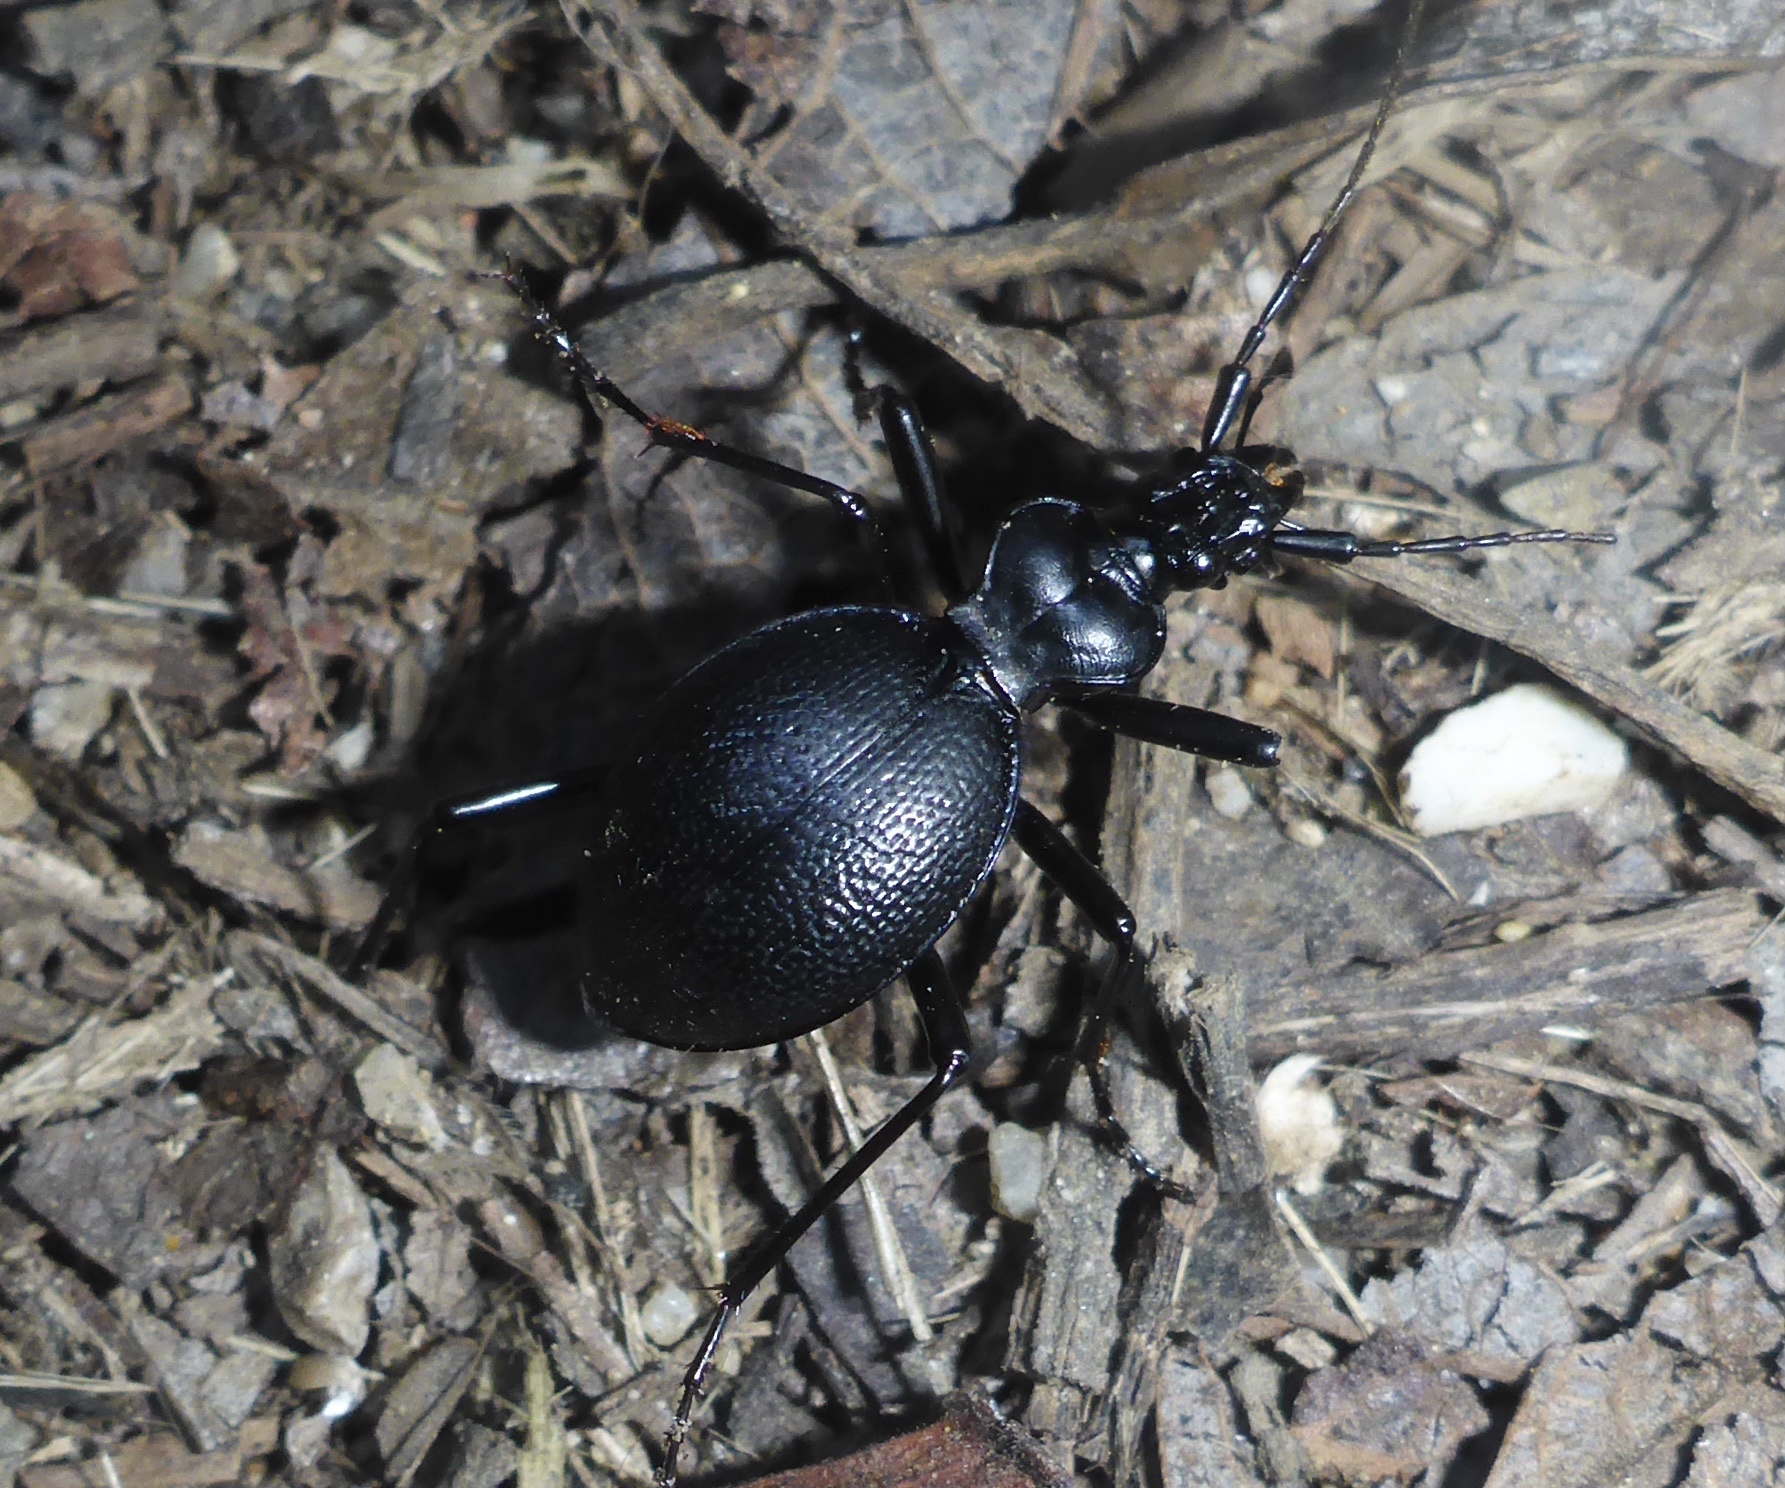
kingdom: Animalia
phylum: Arthropoda
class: Insecta
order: Coleoptera
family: Carabidae
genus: Scaphinotus
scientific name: Scaphinotus cristatus
